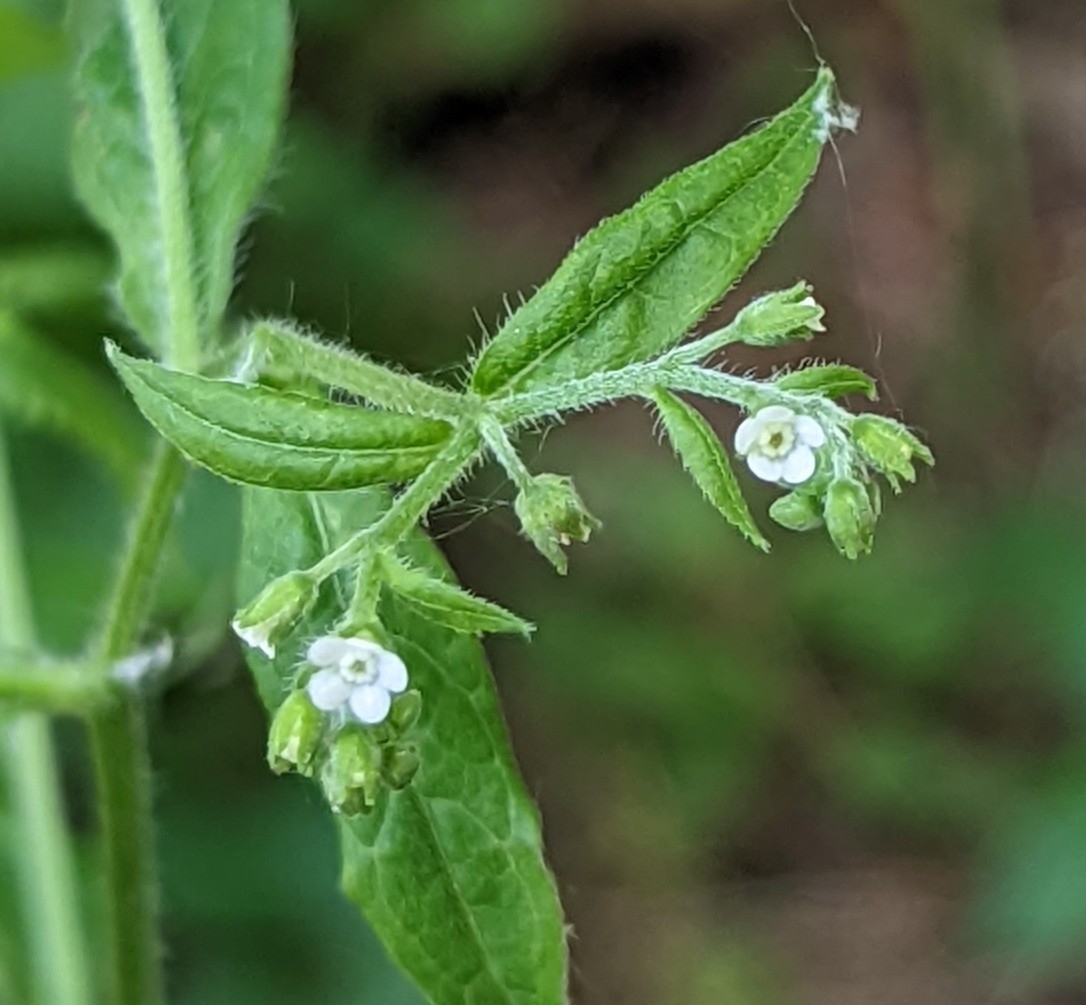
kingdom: Plantae
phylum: Tracheophyta
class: Magnoliopsida
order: Boraginales
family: Boraginaceae
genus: Hackelia
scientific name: Hackelia virginiana
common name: Beggar's-lice
